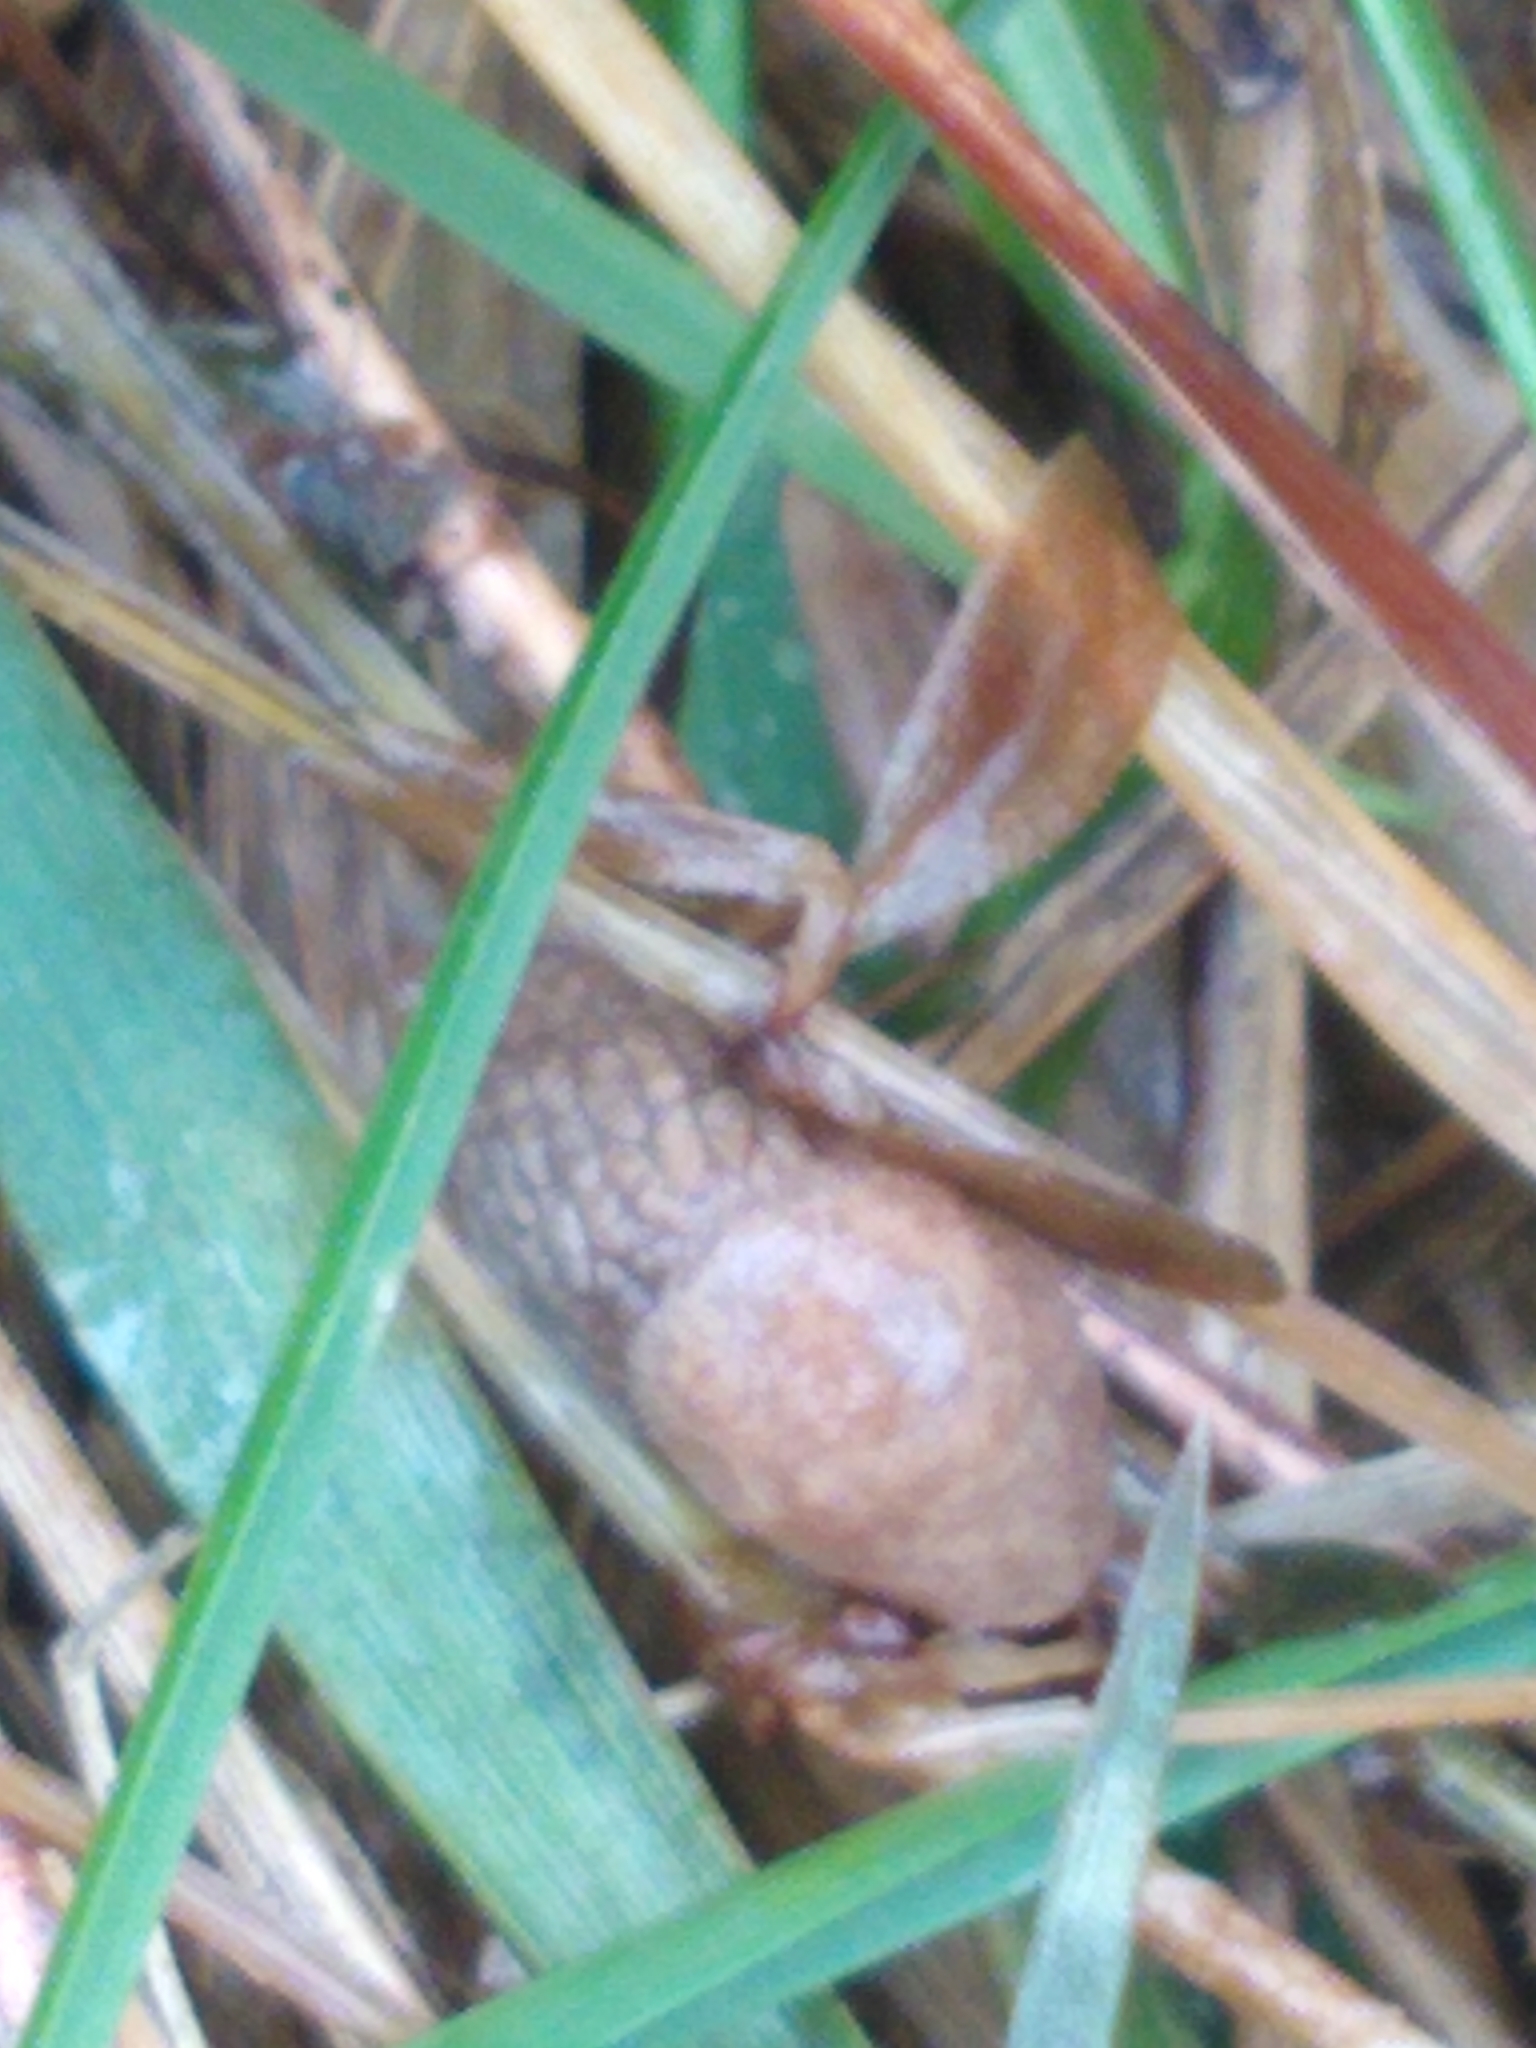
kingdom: Animalia
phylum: Mollusca
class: Gastropoda
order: Stylommatophora
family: Agriolimacidae
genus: Deroceras
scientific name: Deroceras reticulatum
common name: Gray field slug
